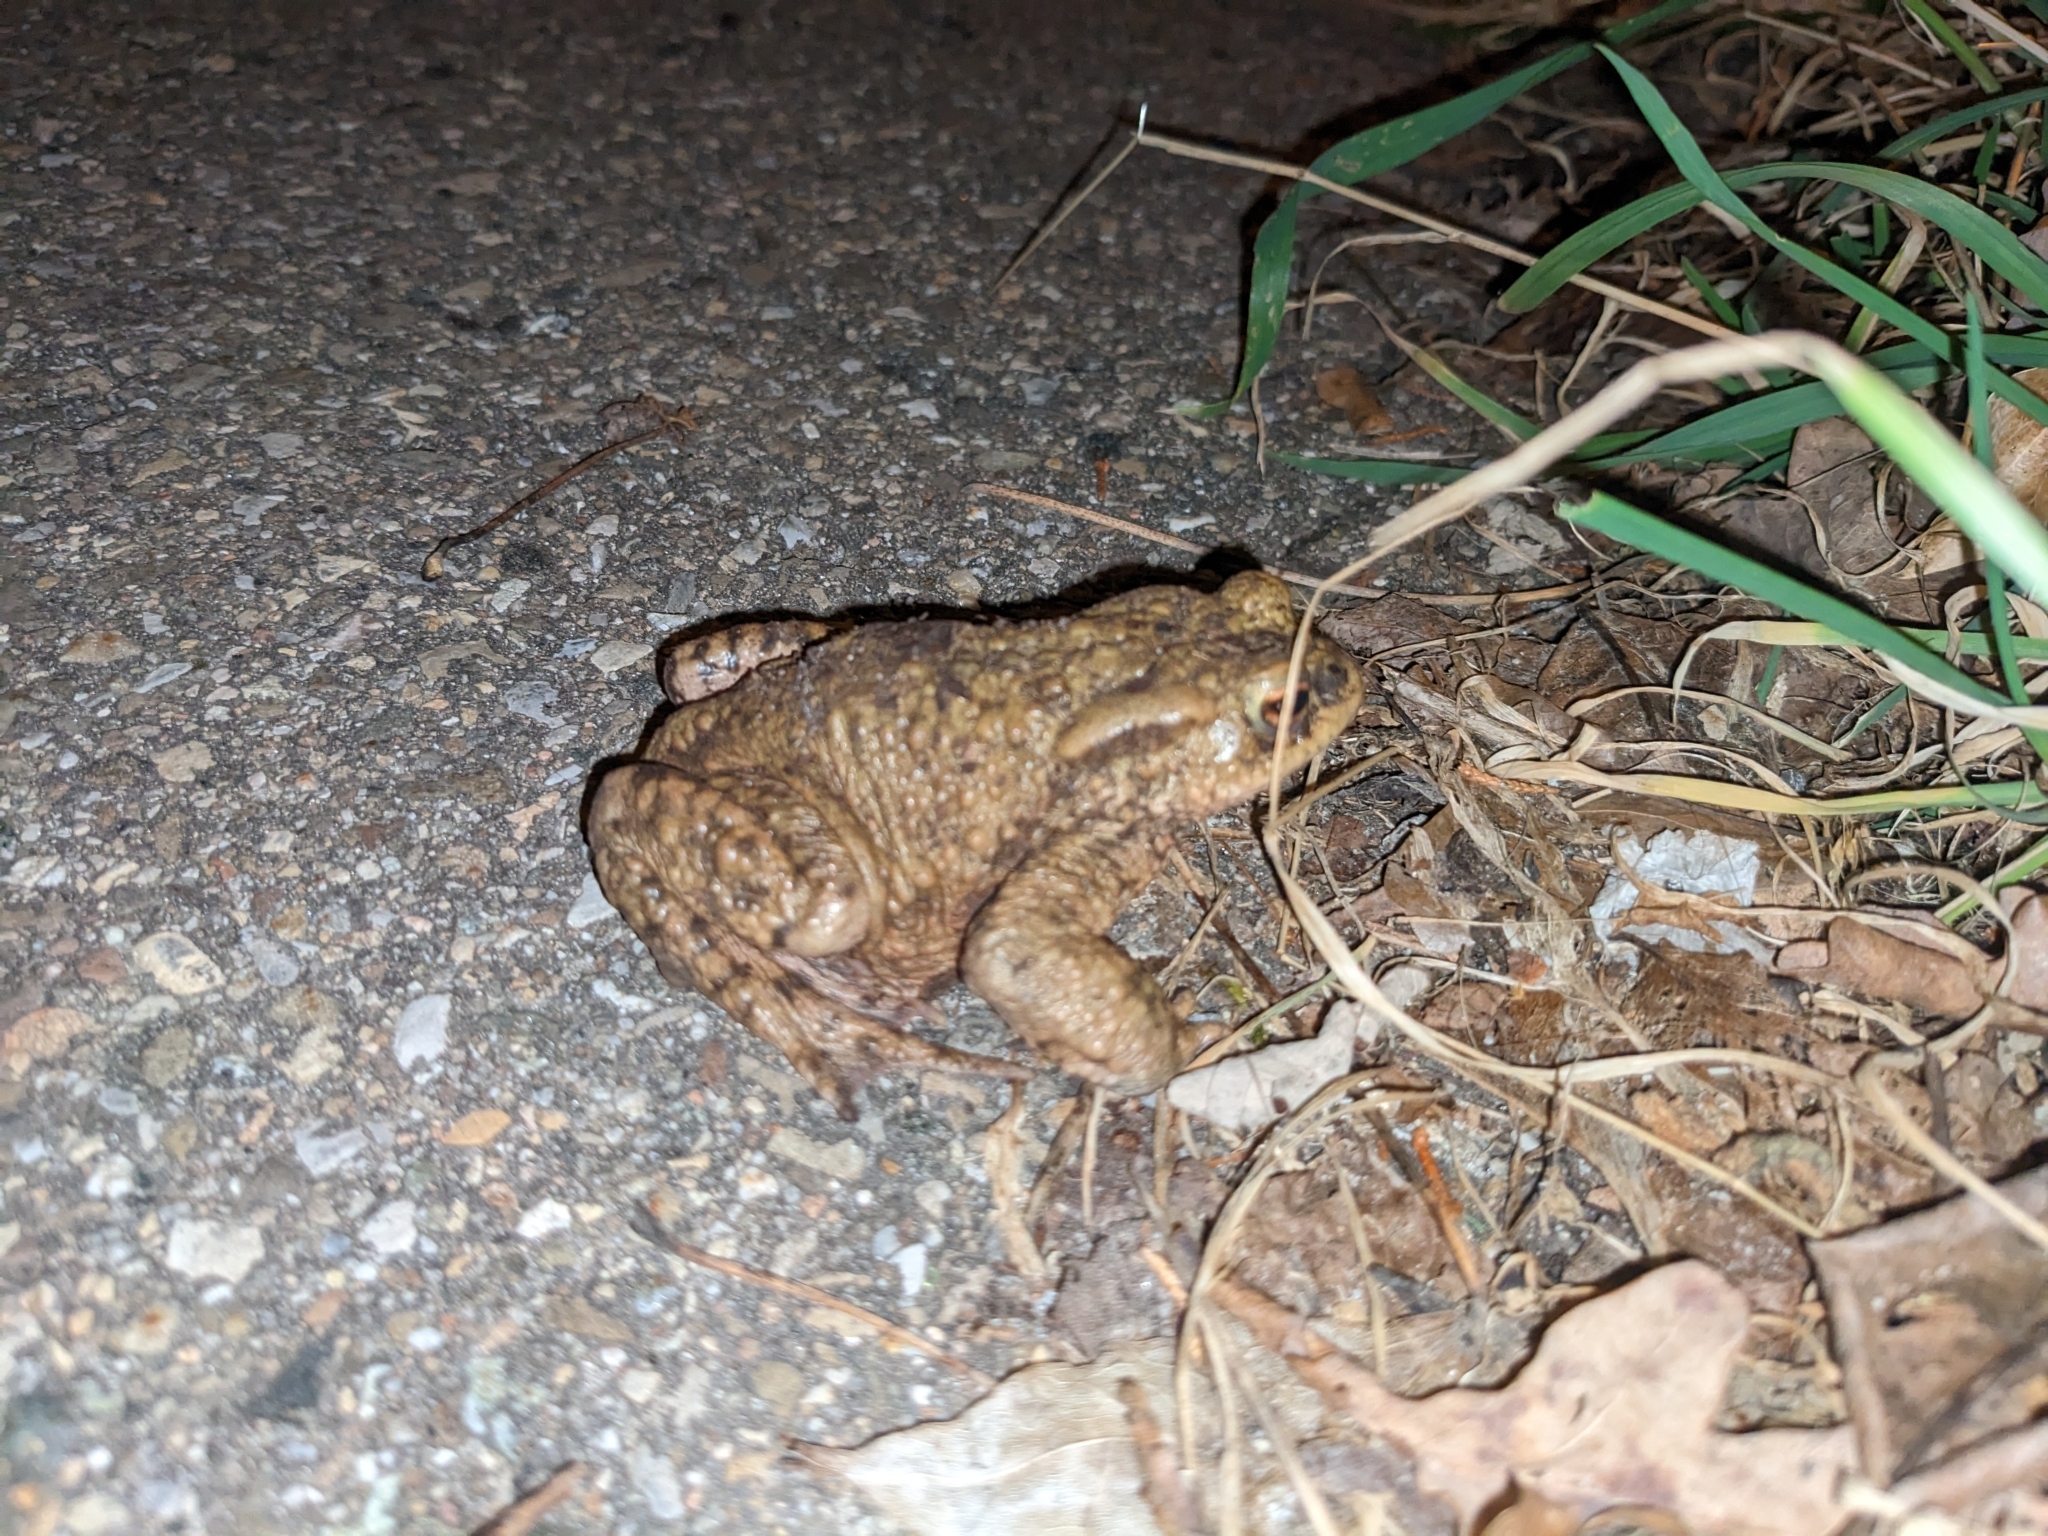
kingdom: Animalia
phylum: Chordata
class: Amphibia
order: Anura
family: Bufonidae
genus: Bufo
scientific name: Bufo bufo
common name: Common toad
